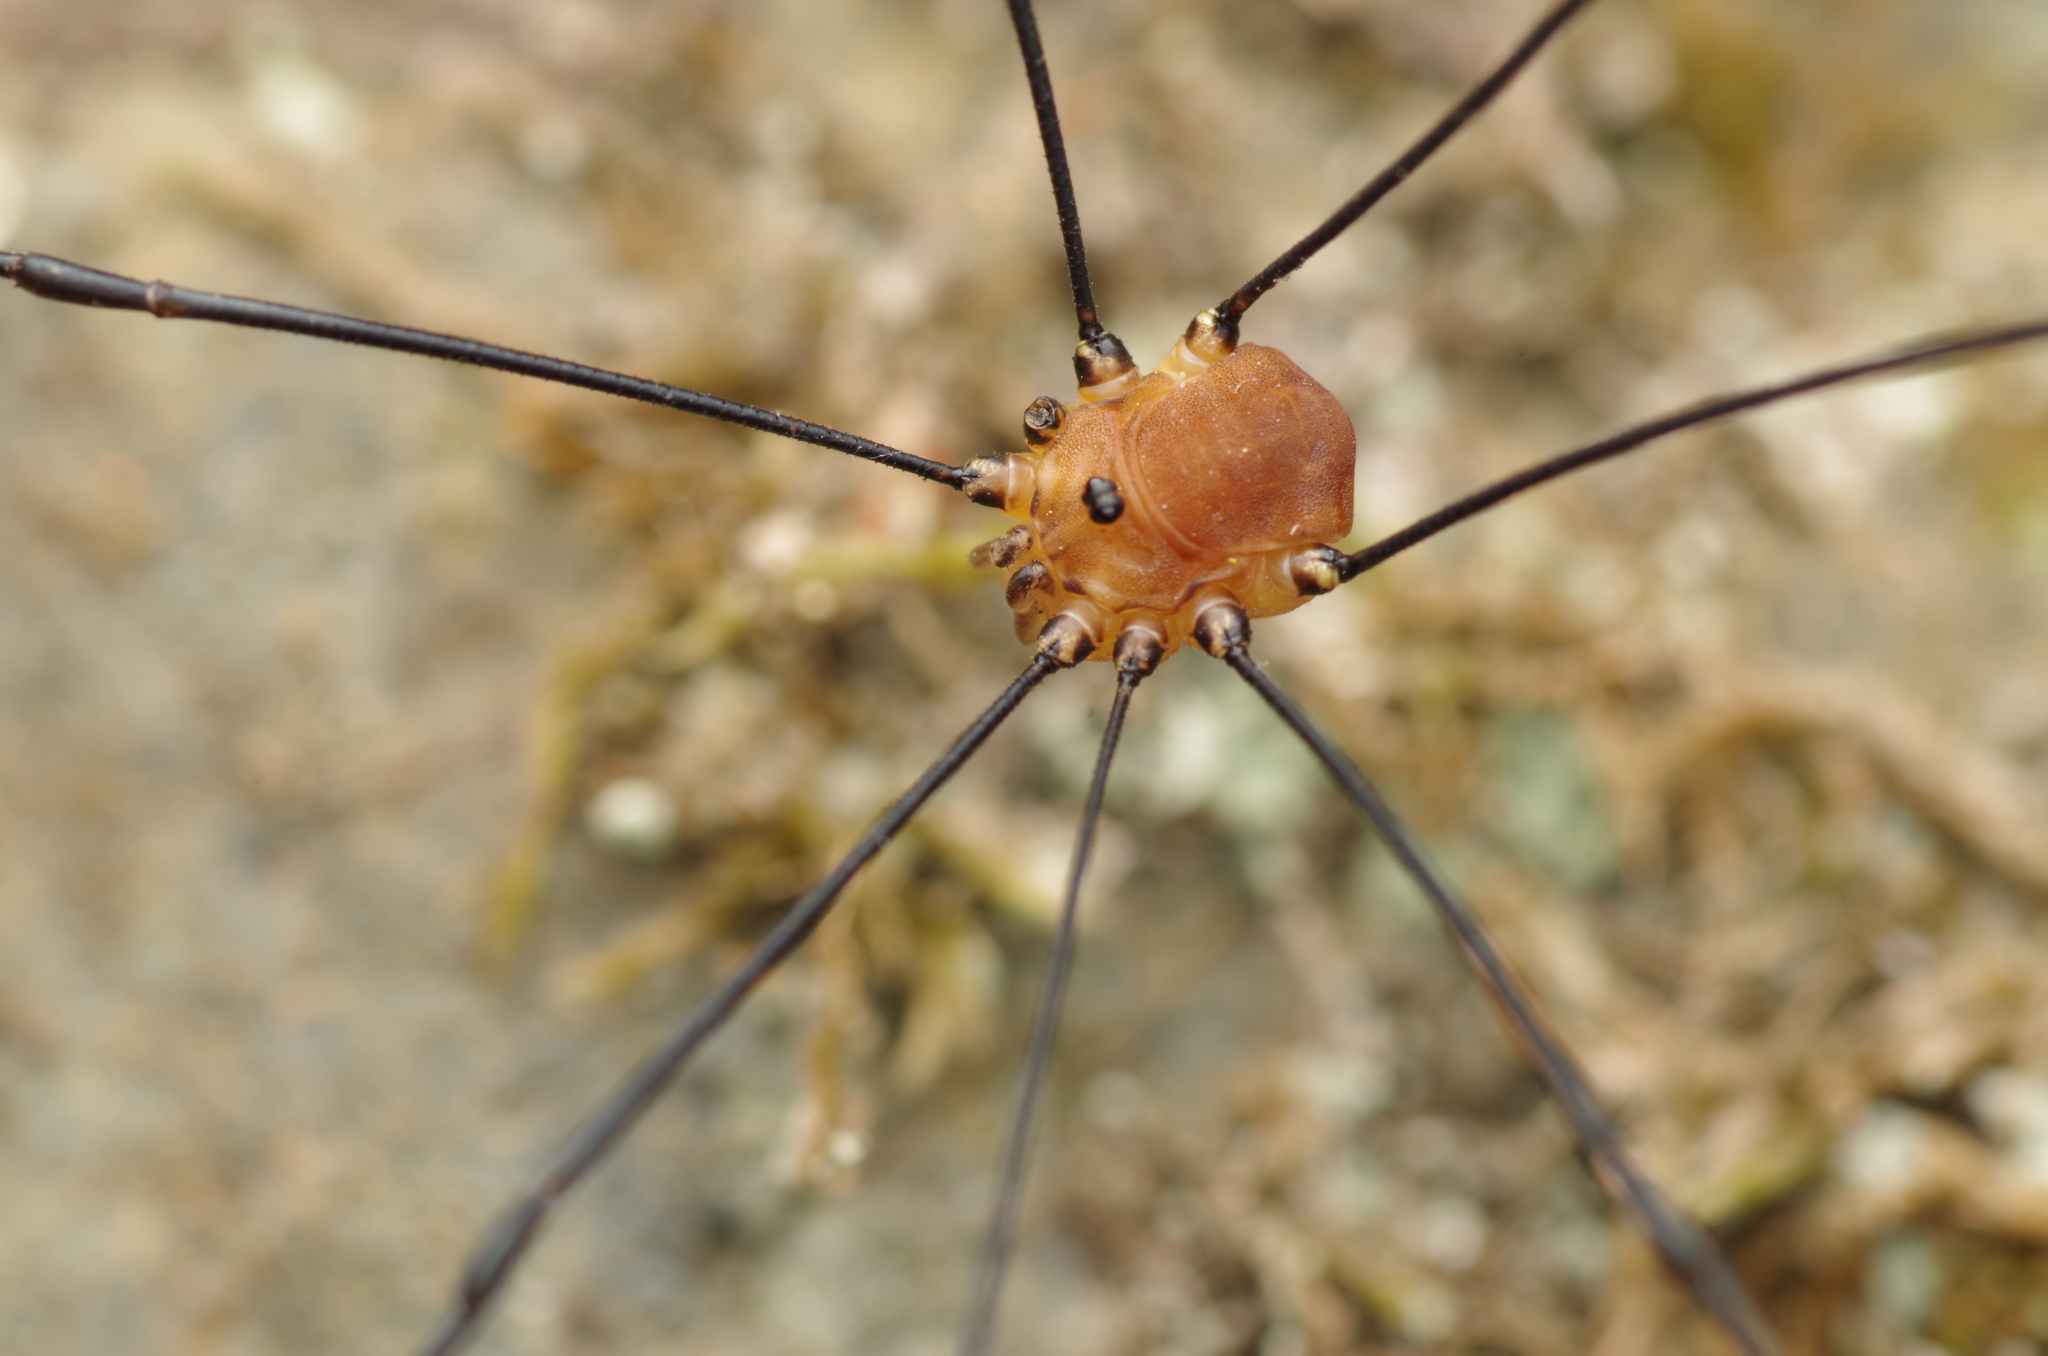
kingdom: Animalia
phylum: Arthropoda
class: Arachnida
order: Opiliones
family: Sclerosomatidae
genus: Leiobunum
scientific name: Leiobunum rotundum
